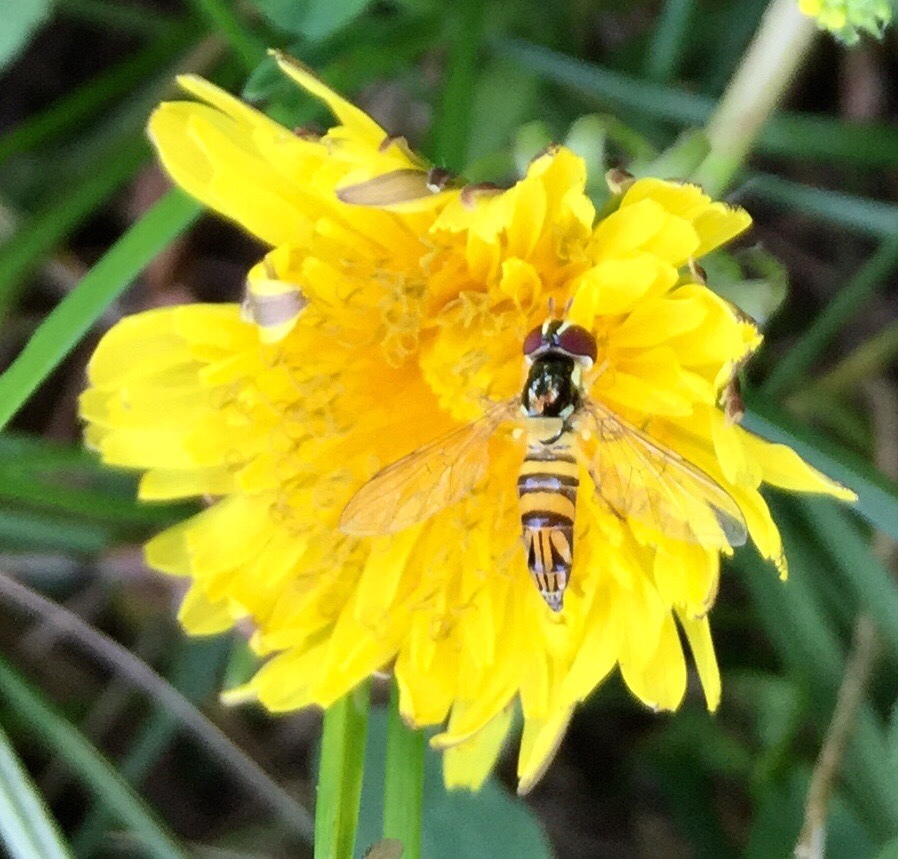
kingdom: Animalia
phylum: Arthropoda
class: Insecta
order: Diptera
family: Syrphidae
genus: Allograpta
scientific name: Allograpta obliqua
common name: Common oblique syrphid
